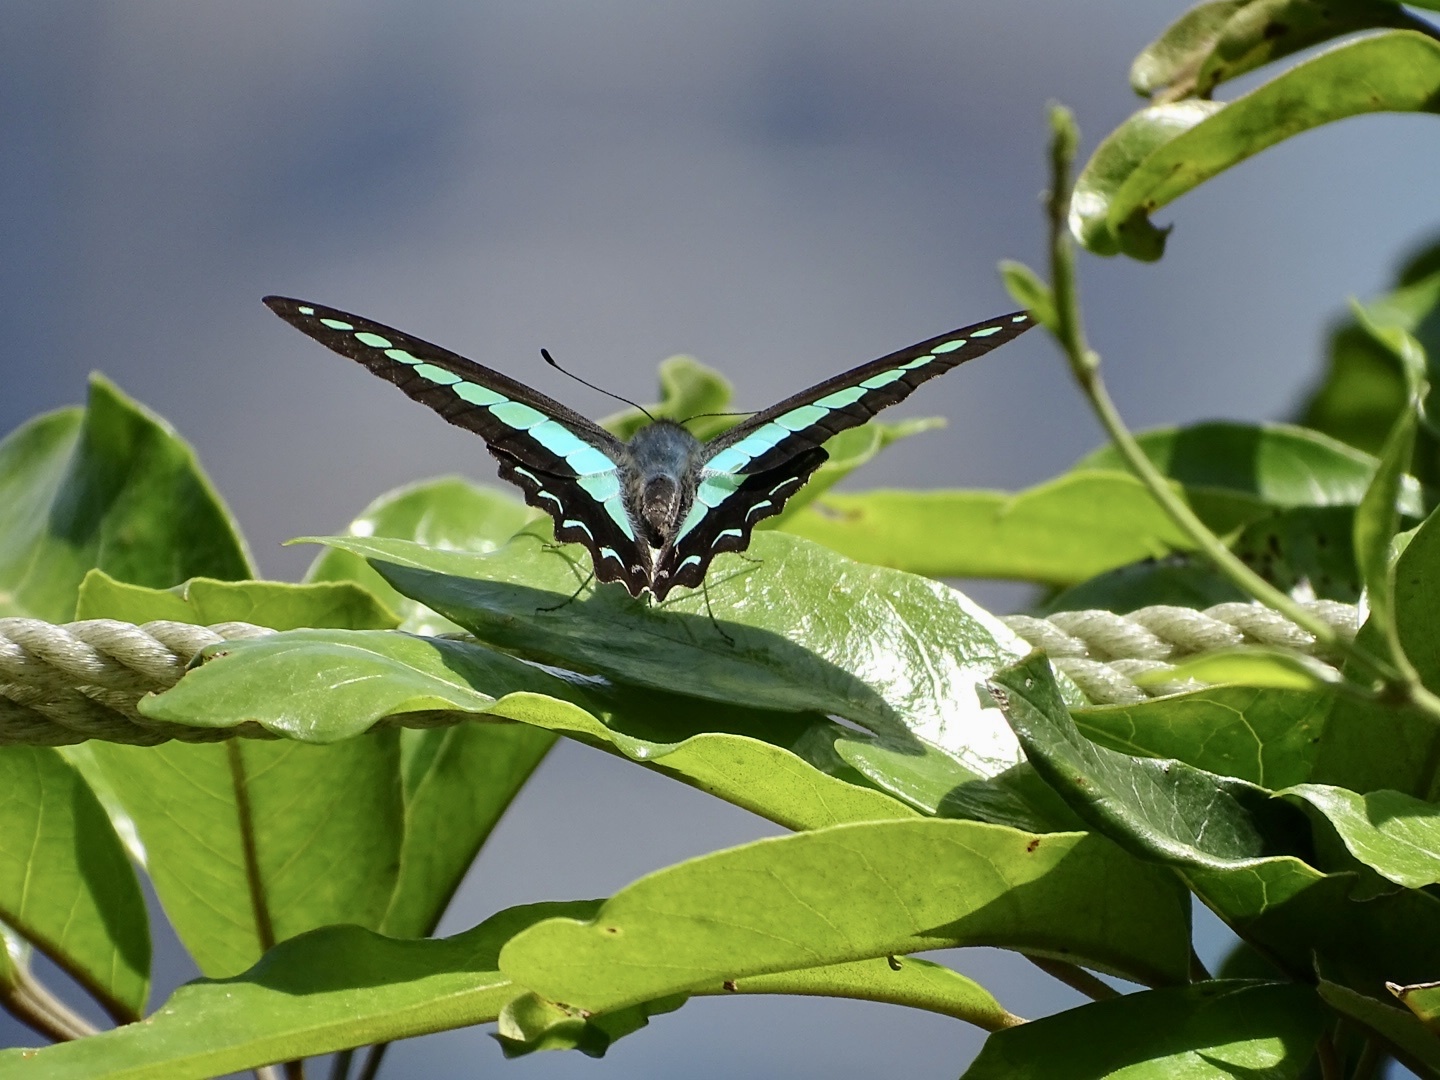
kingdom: Fungi
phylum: Ascomycota
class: Sordariomycetes
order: Microascales
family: Microascaceae
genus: Graphium
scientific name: Graphium sarpedon
